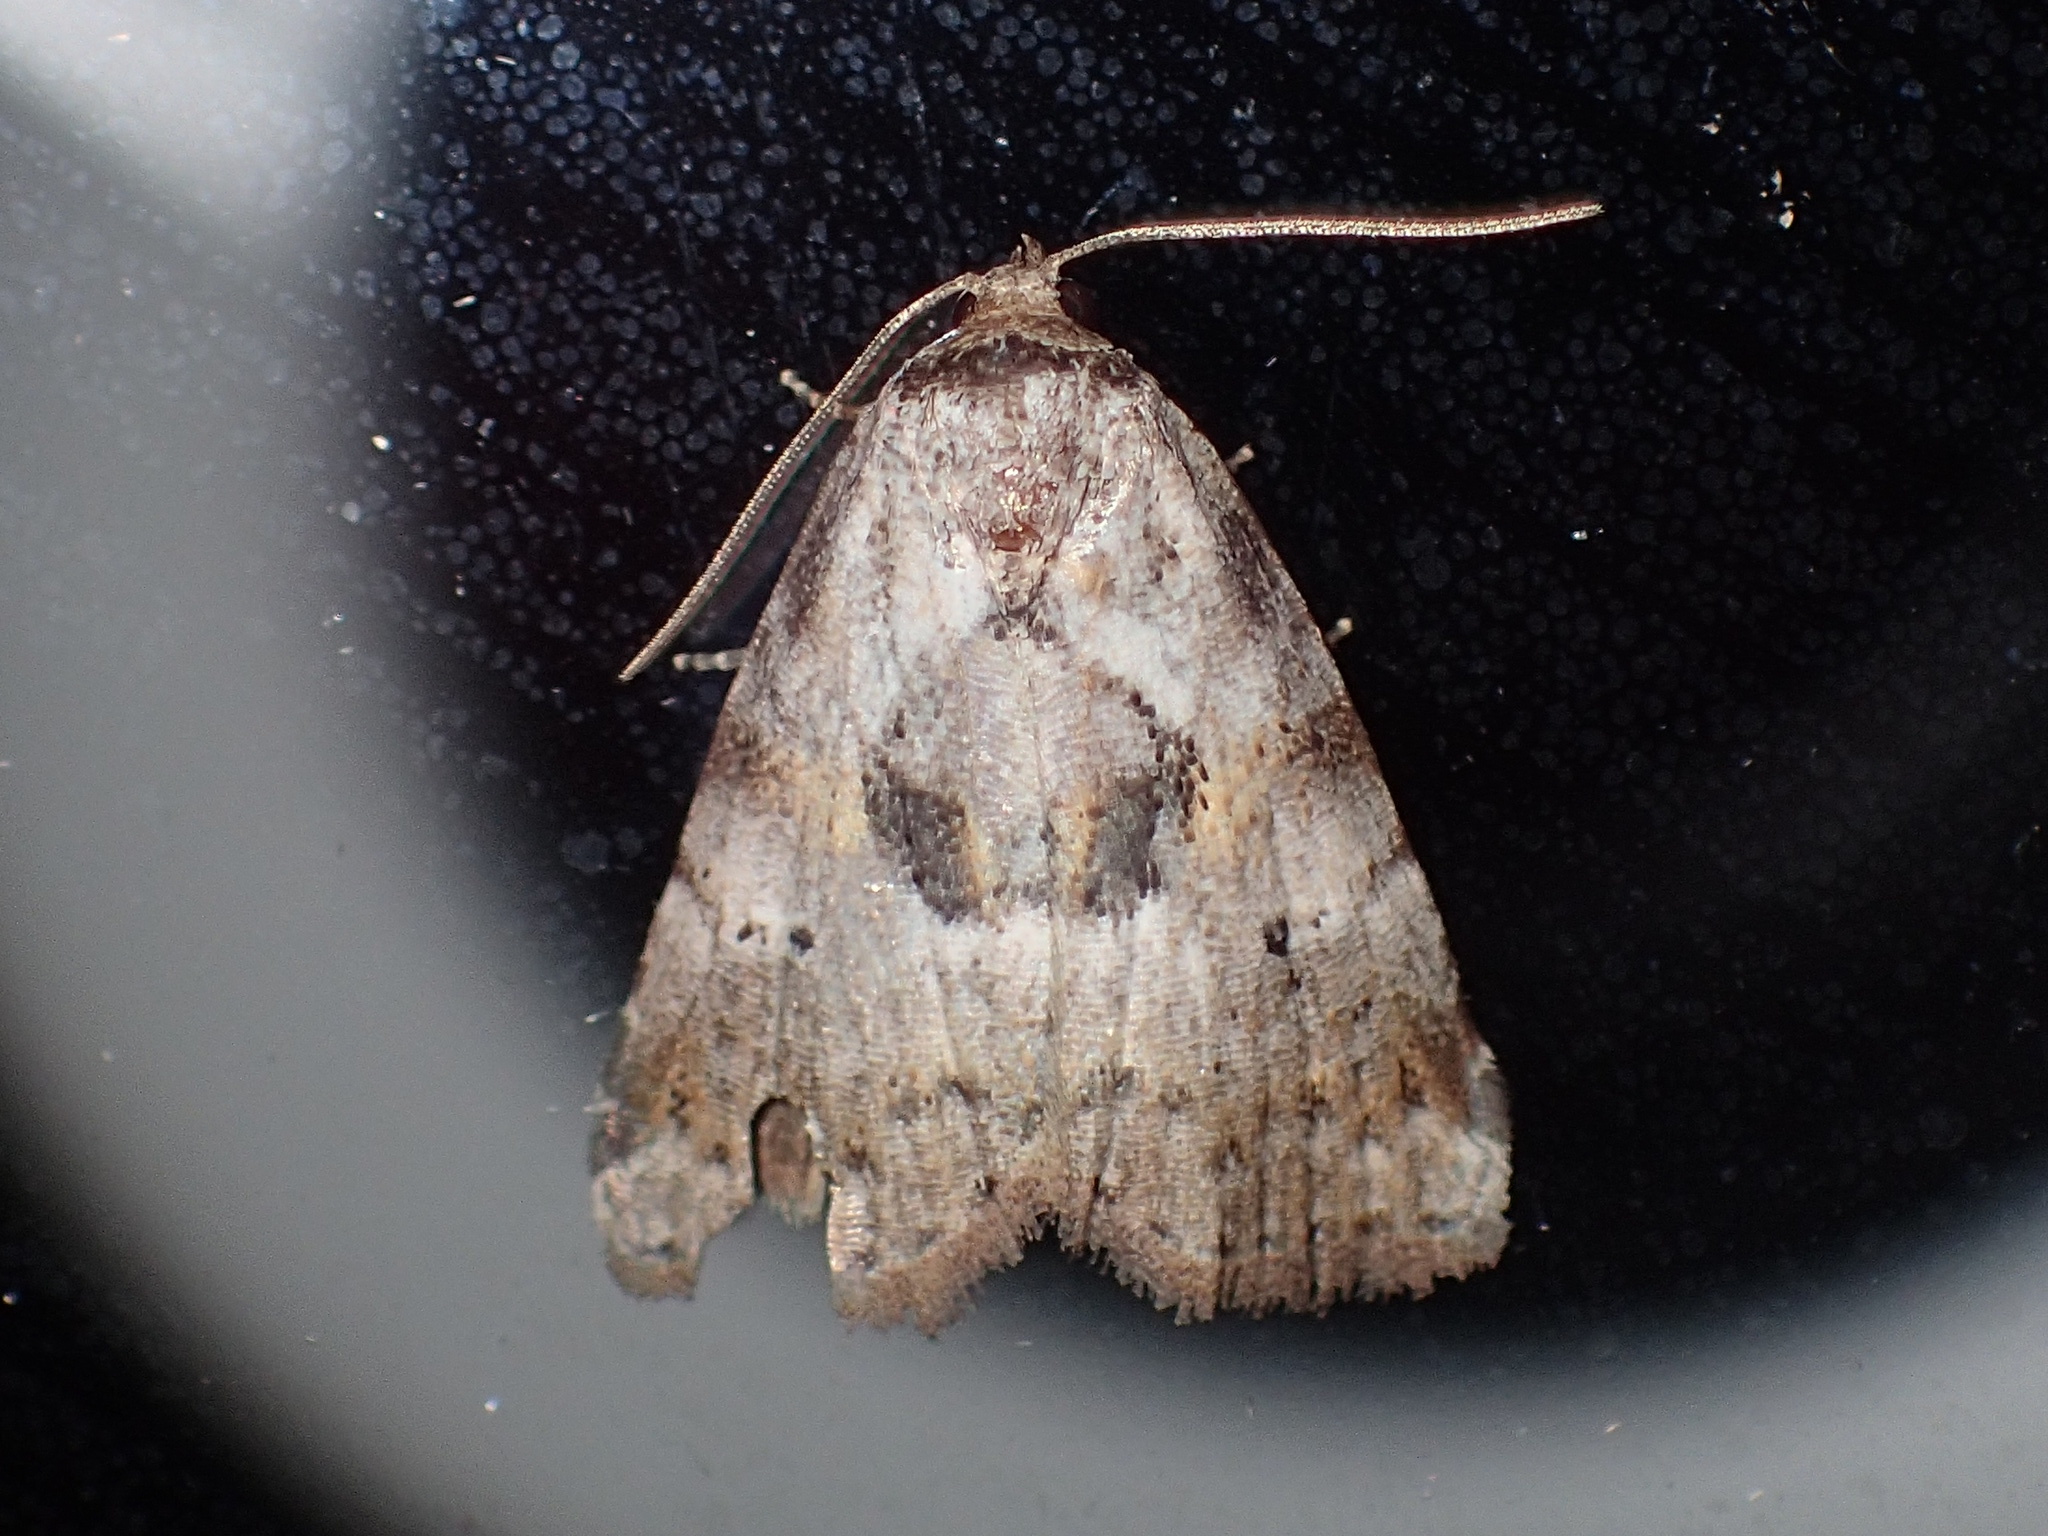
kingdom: Animalia
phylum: Arthropoda
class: Insecta
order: Lepidoptera
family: Erebidae
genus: Hyperstrotia
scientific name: Hyperstrotia secta
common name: Black-patched graylet
